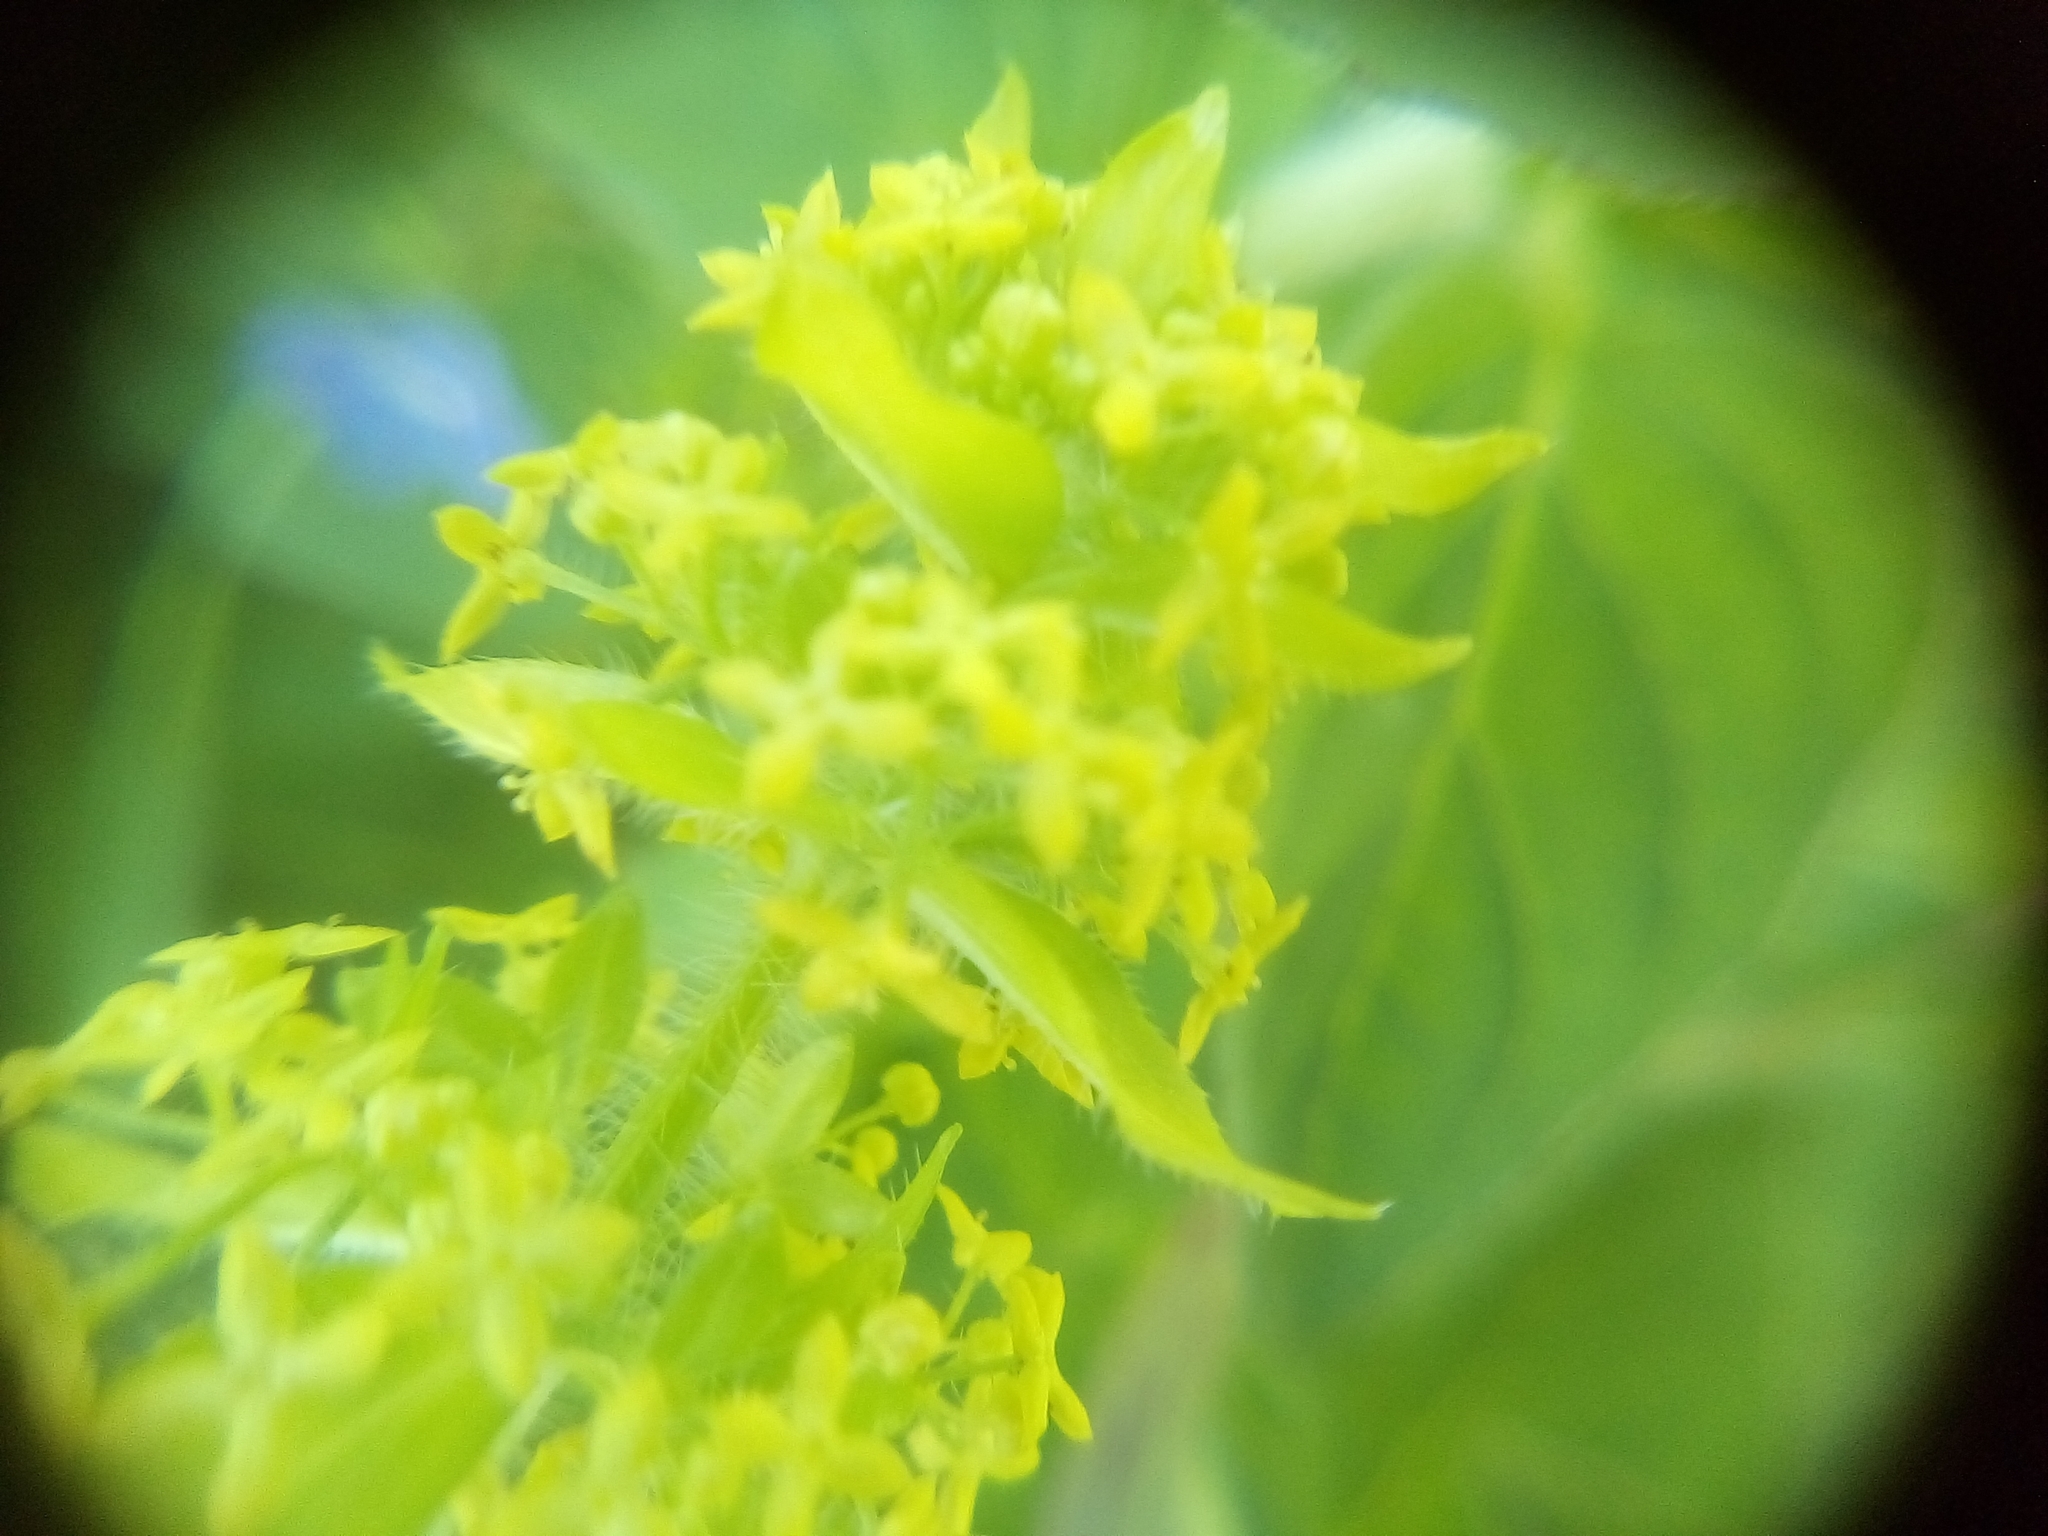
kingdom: Plantae
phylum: Tracheophyta
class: Magnoliopsida
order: Gentianales
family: Rubiaceae
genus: Cruciata
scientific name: Cruciata laevipes
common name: Crosswort
